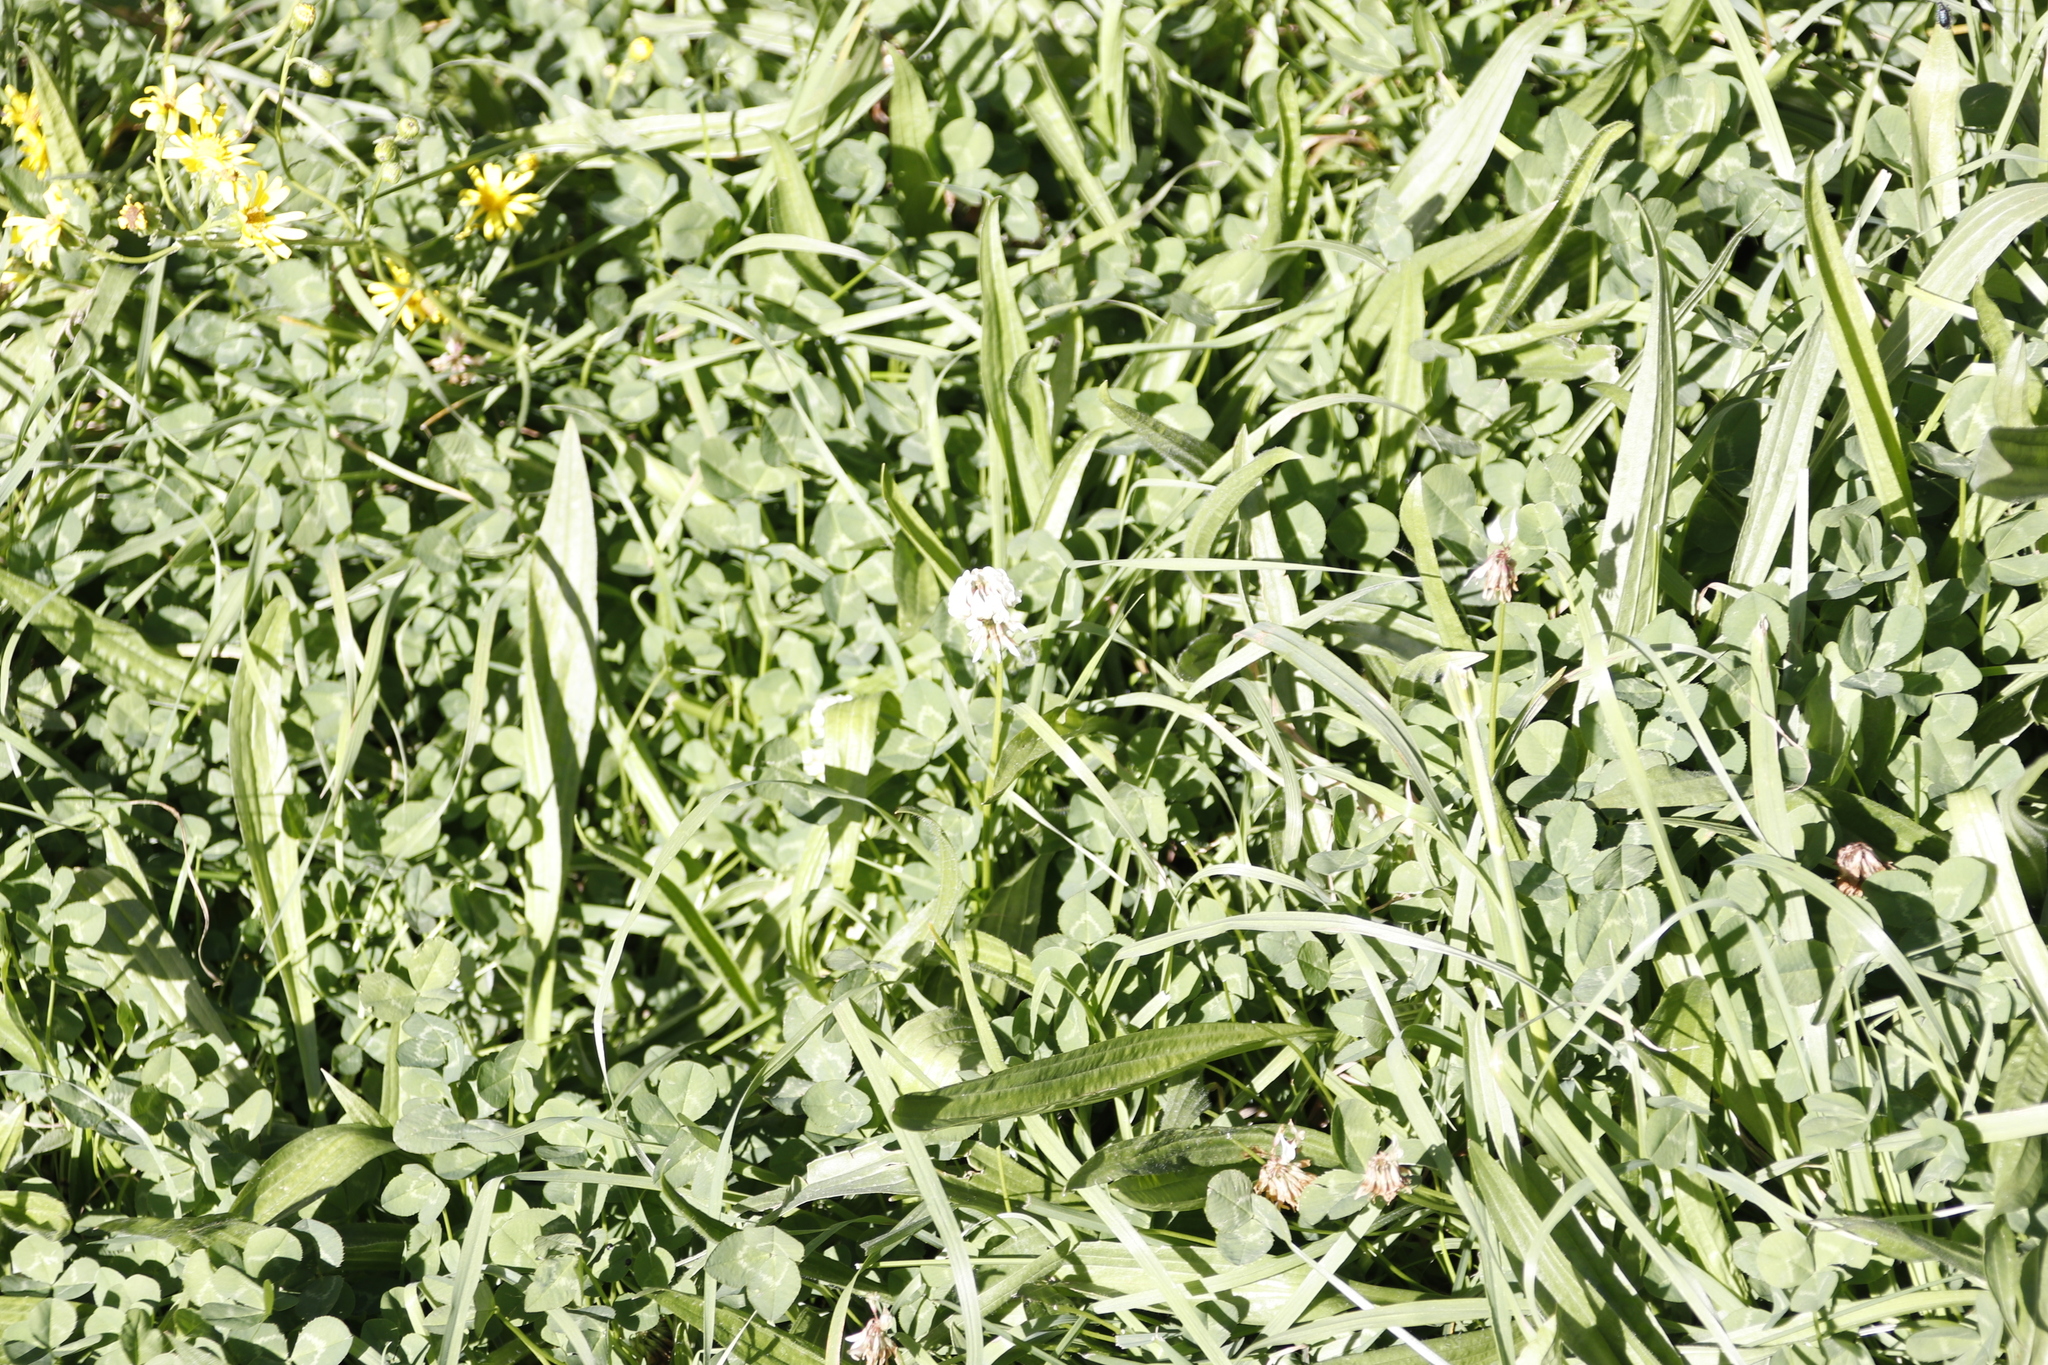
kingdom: Plantae
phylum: Tracheophyta
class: Magnoliopsida
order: Fabales
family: Fabaceae
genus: Trifolium
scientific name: Trifolium repens
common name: White clover
